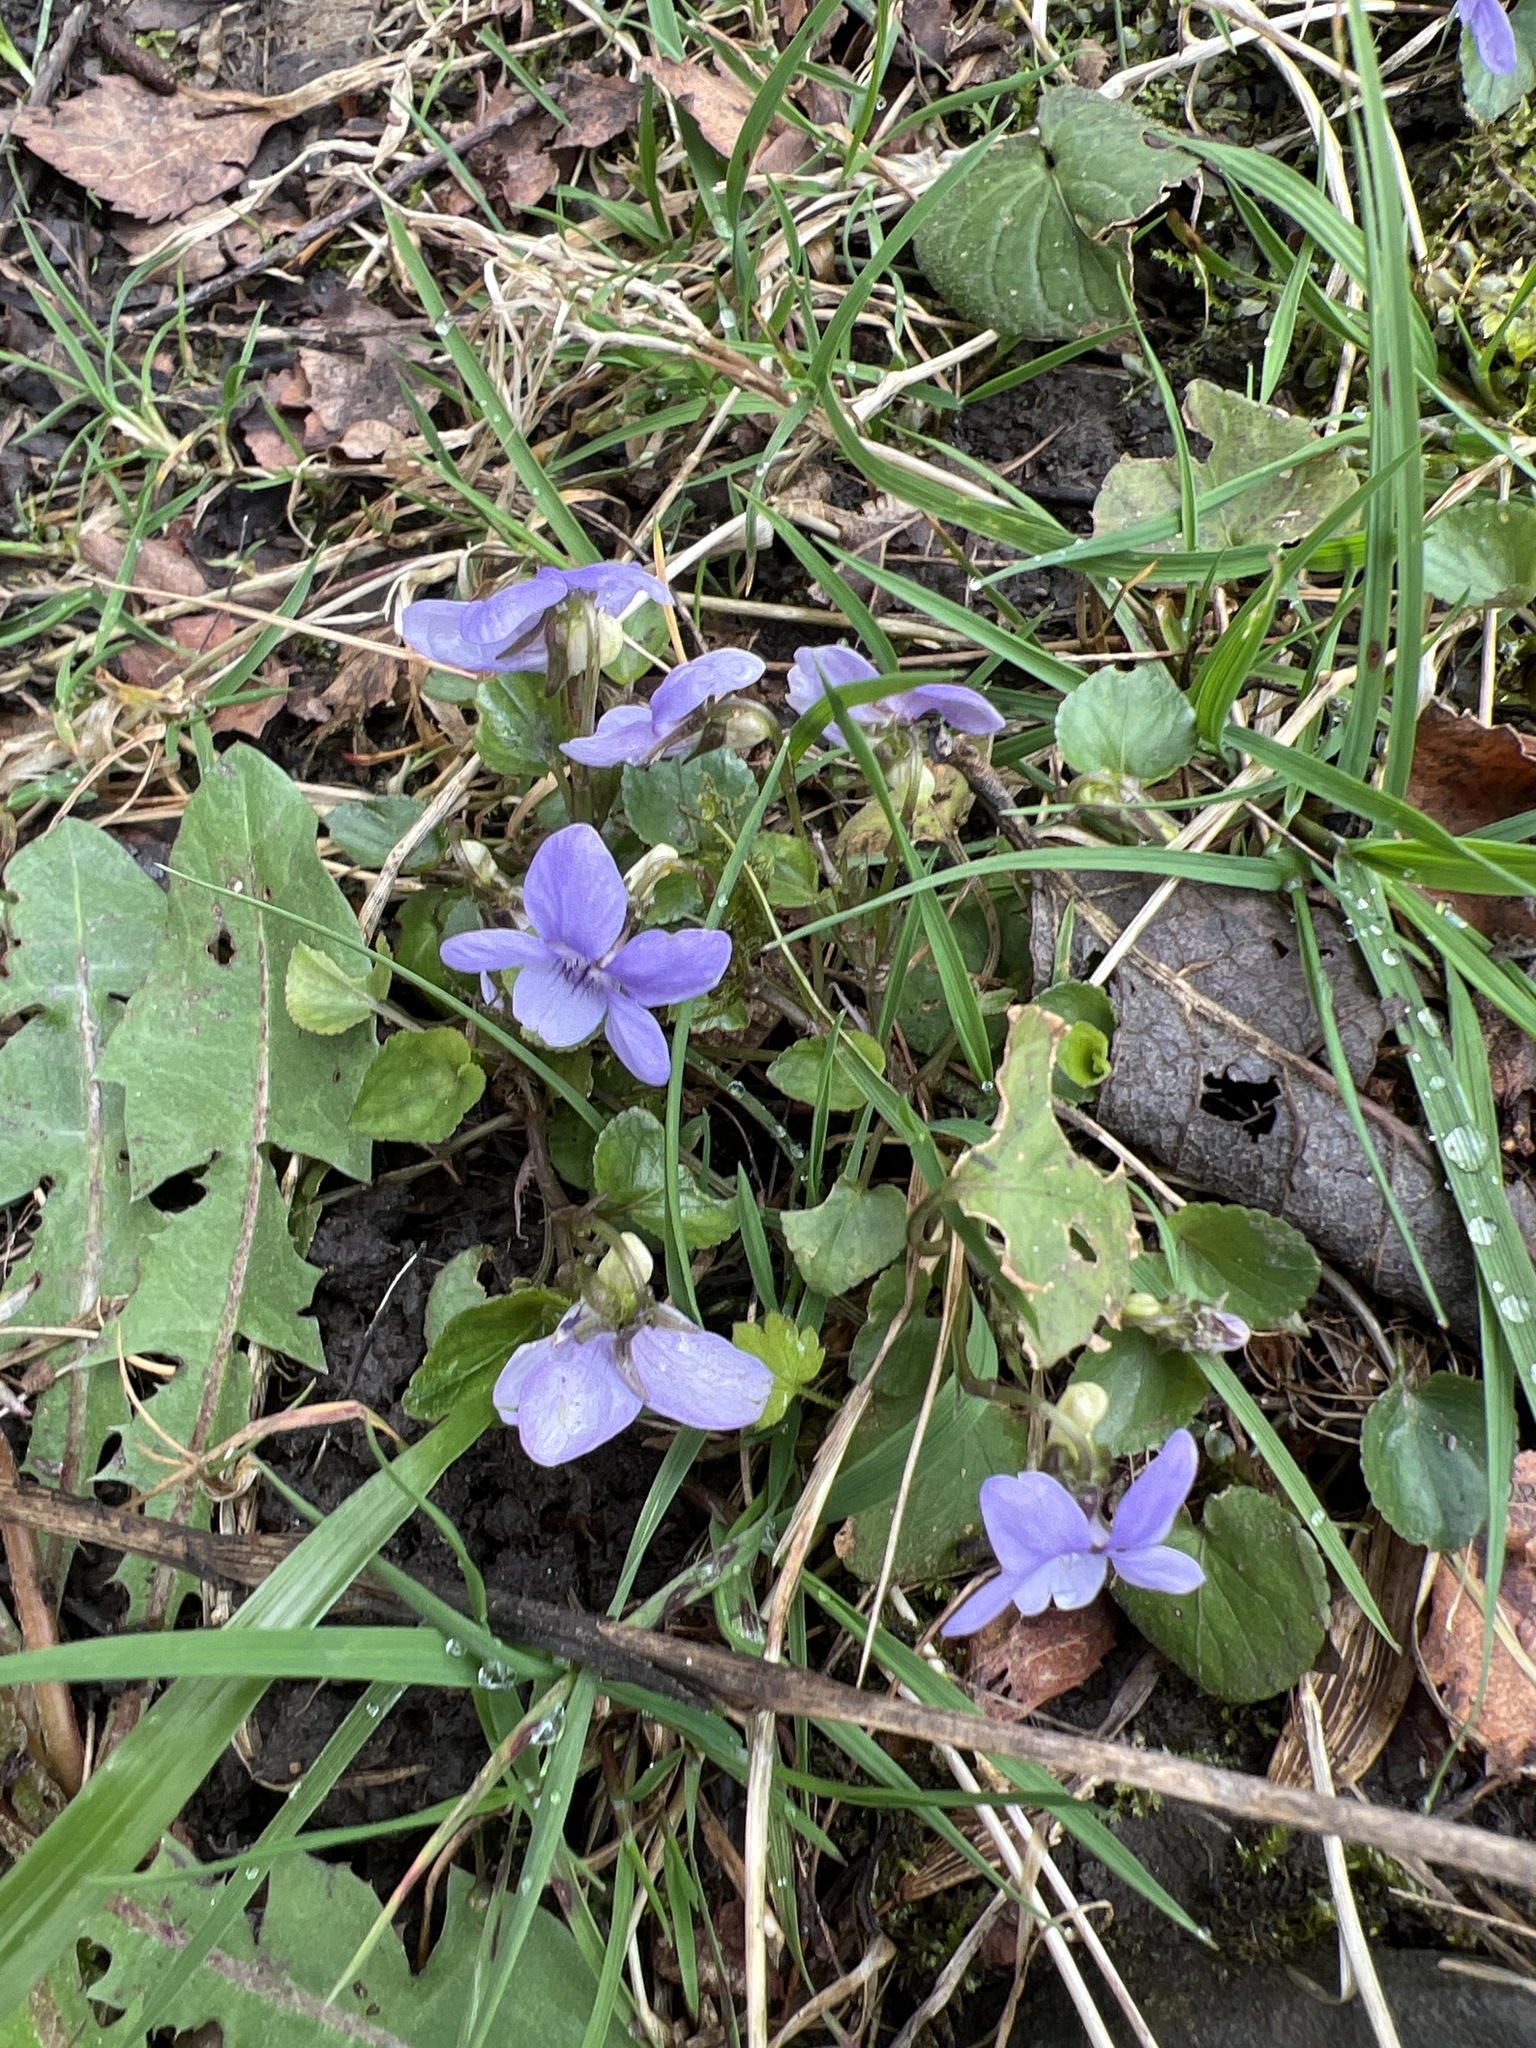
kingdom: Plantae
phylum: Tracheophyta
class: Magnoliopsida
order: Malpighiales
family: Violaceae
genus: Viola
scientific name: Viola riviniana
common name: Common dog-violet
